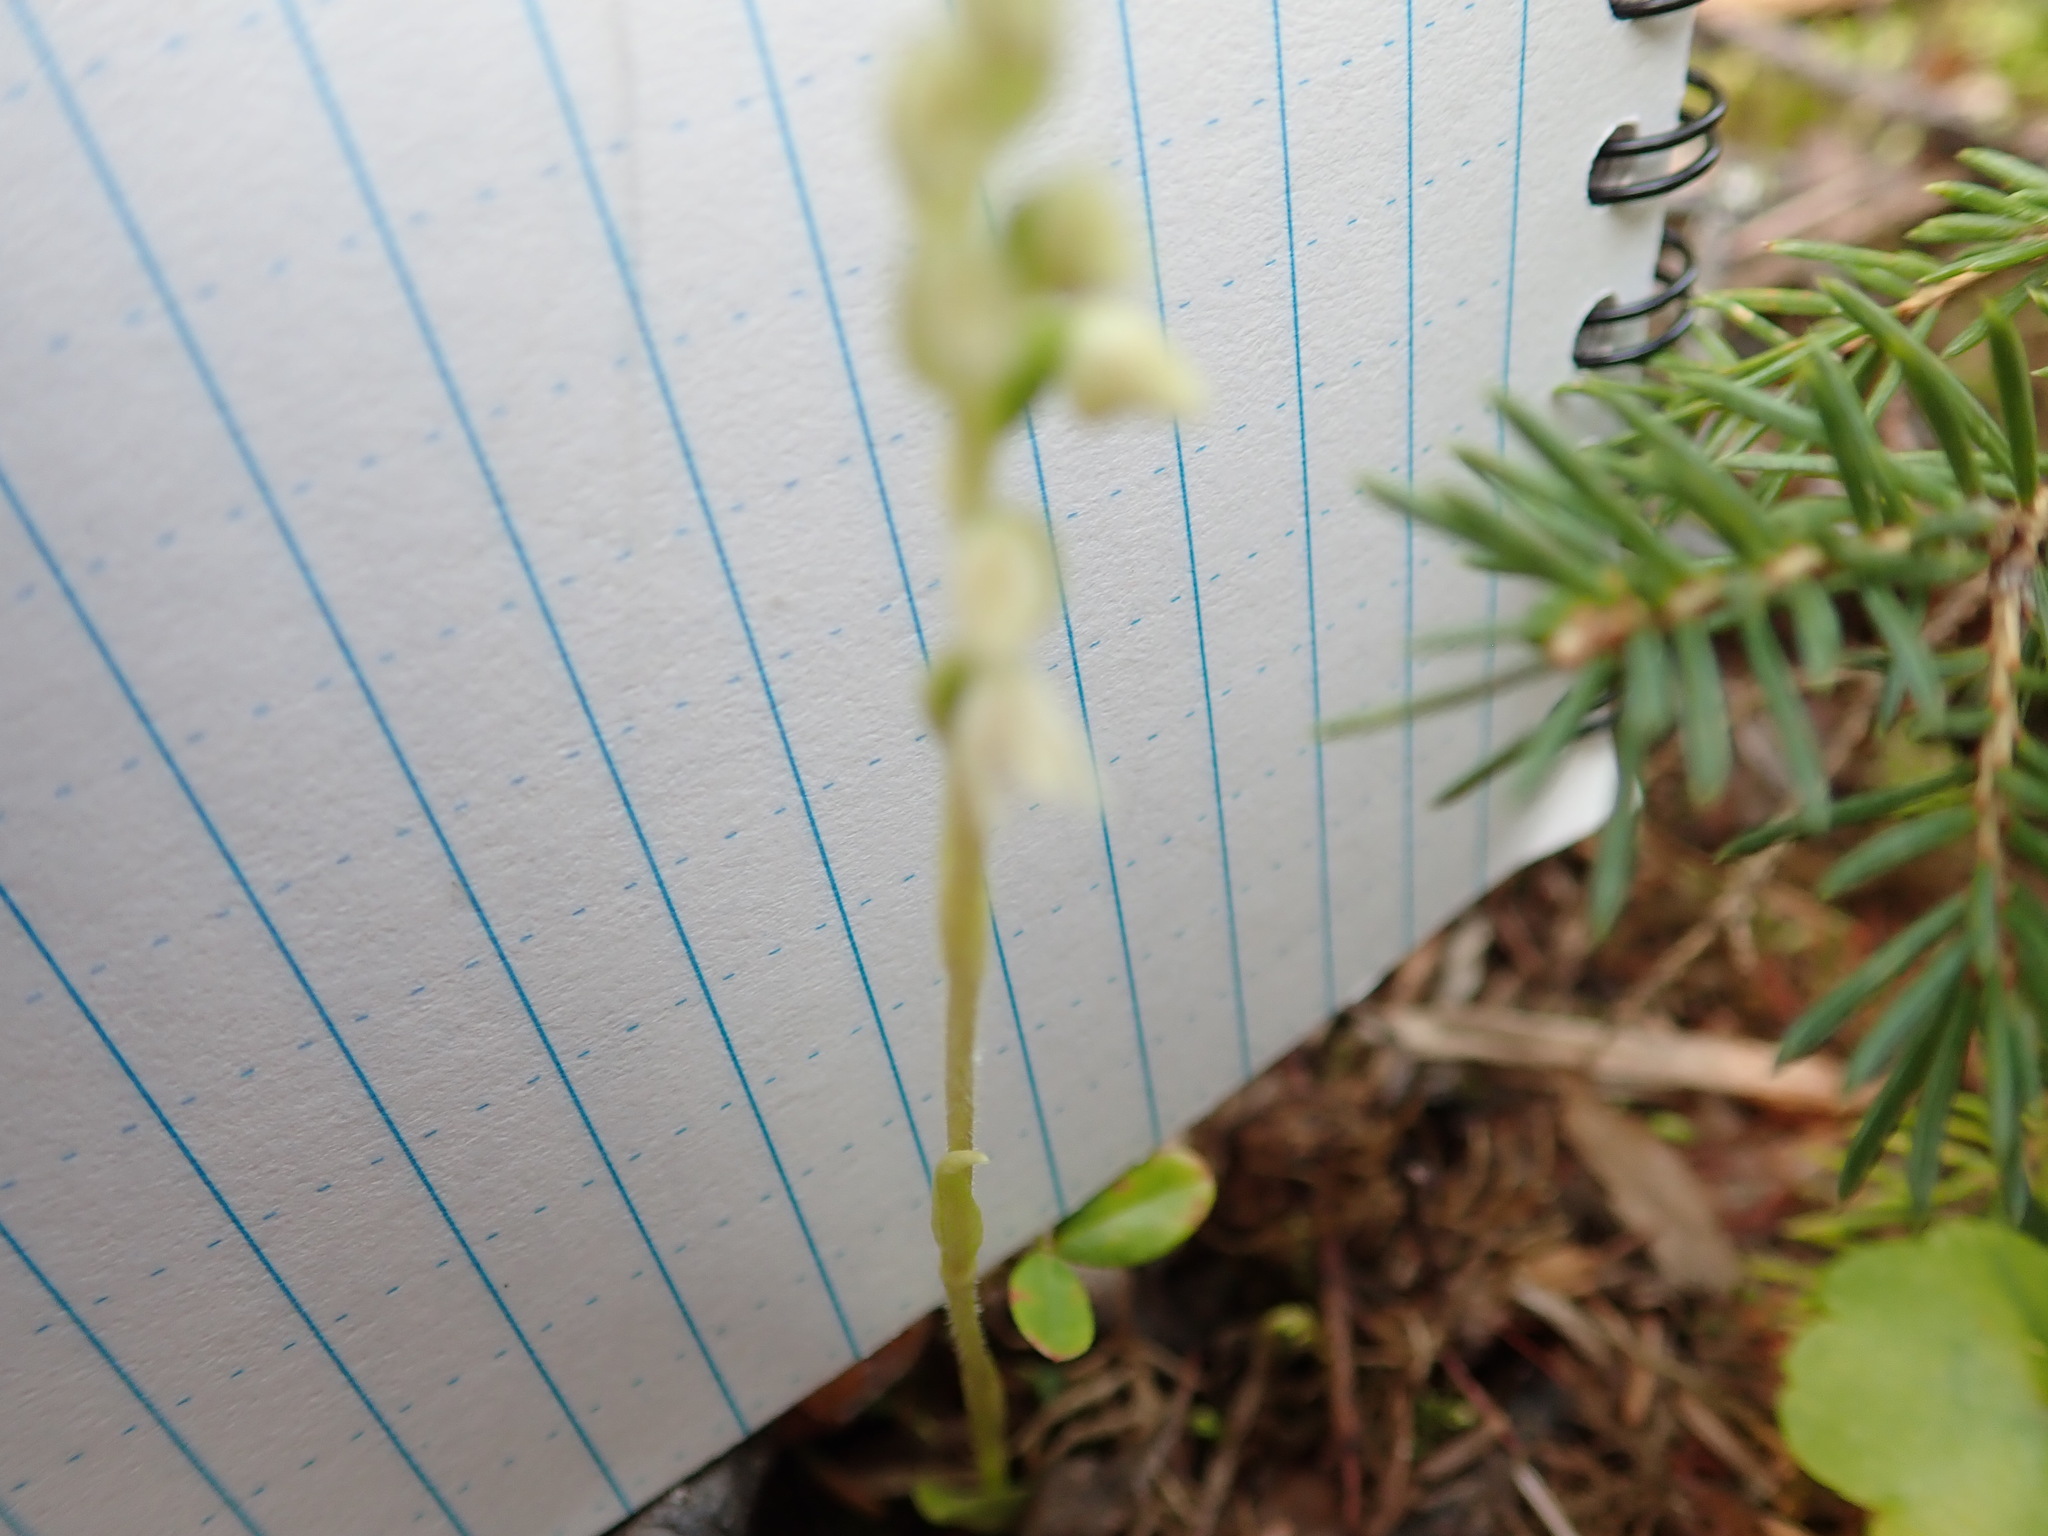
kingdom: Plantae
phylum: Tracheophyta
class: Liliopsida
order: Asparagales
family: Orchidaceae
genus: Goodyera
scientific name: Goodyera repens
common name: Creeping lady's-tresses
